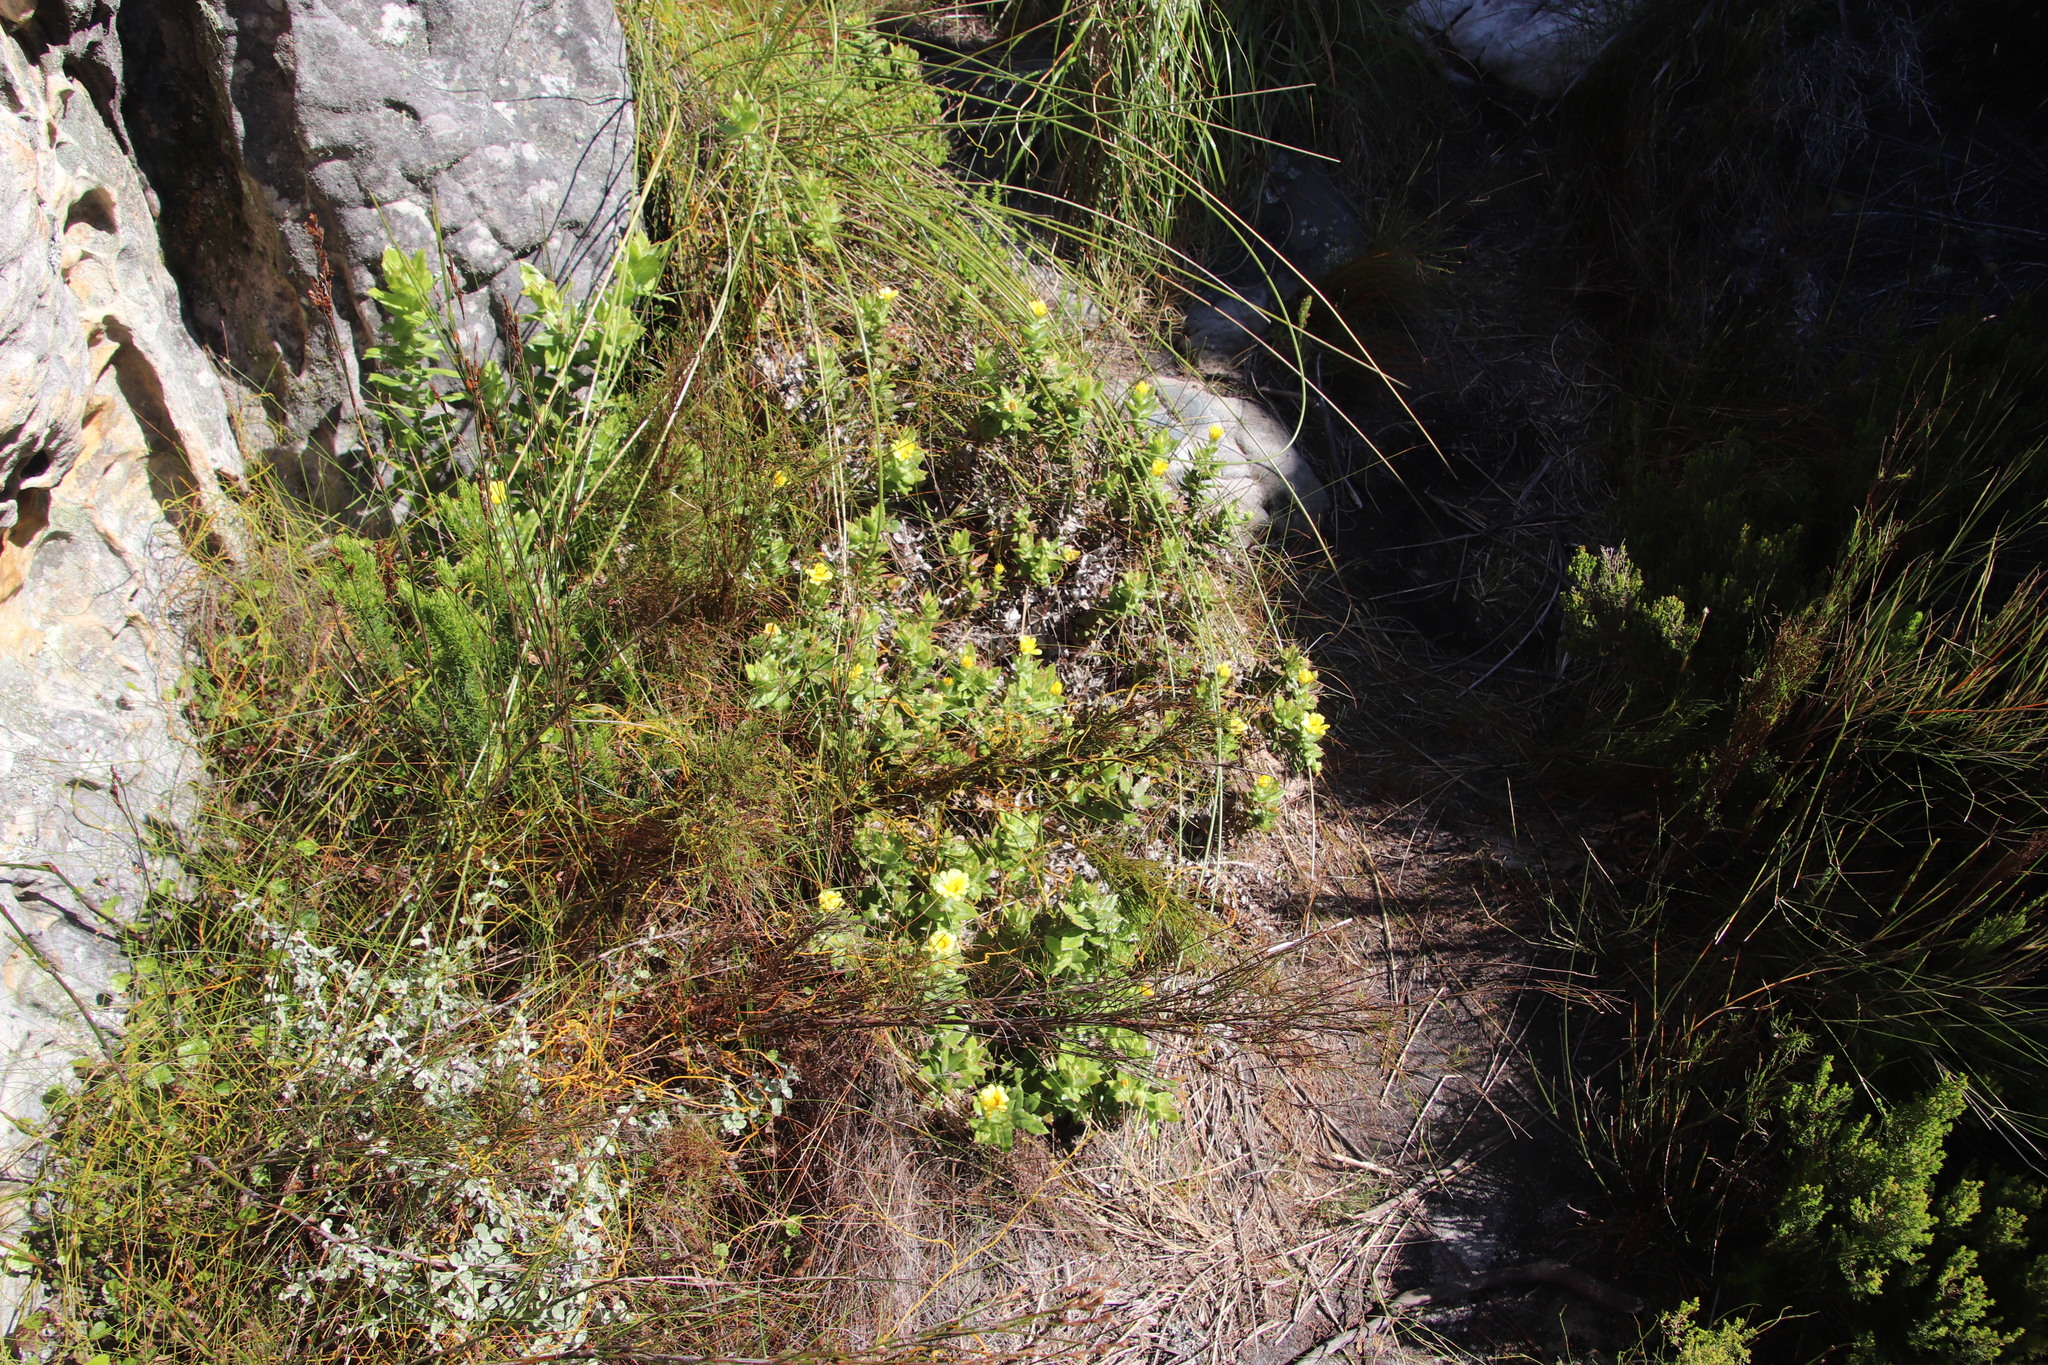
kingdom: Plantae
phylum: Tracheophyta
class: Magnoliopsida
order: Asterales
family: Asteraceae
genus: Osteospermum
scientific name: Osteospermum ilicifolium
